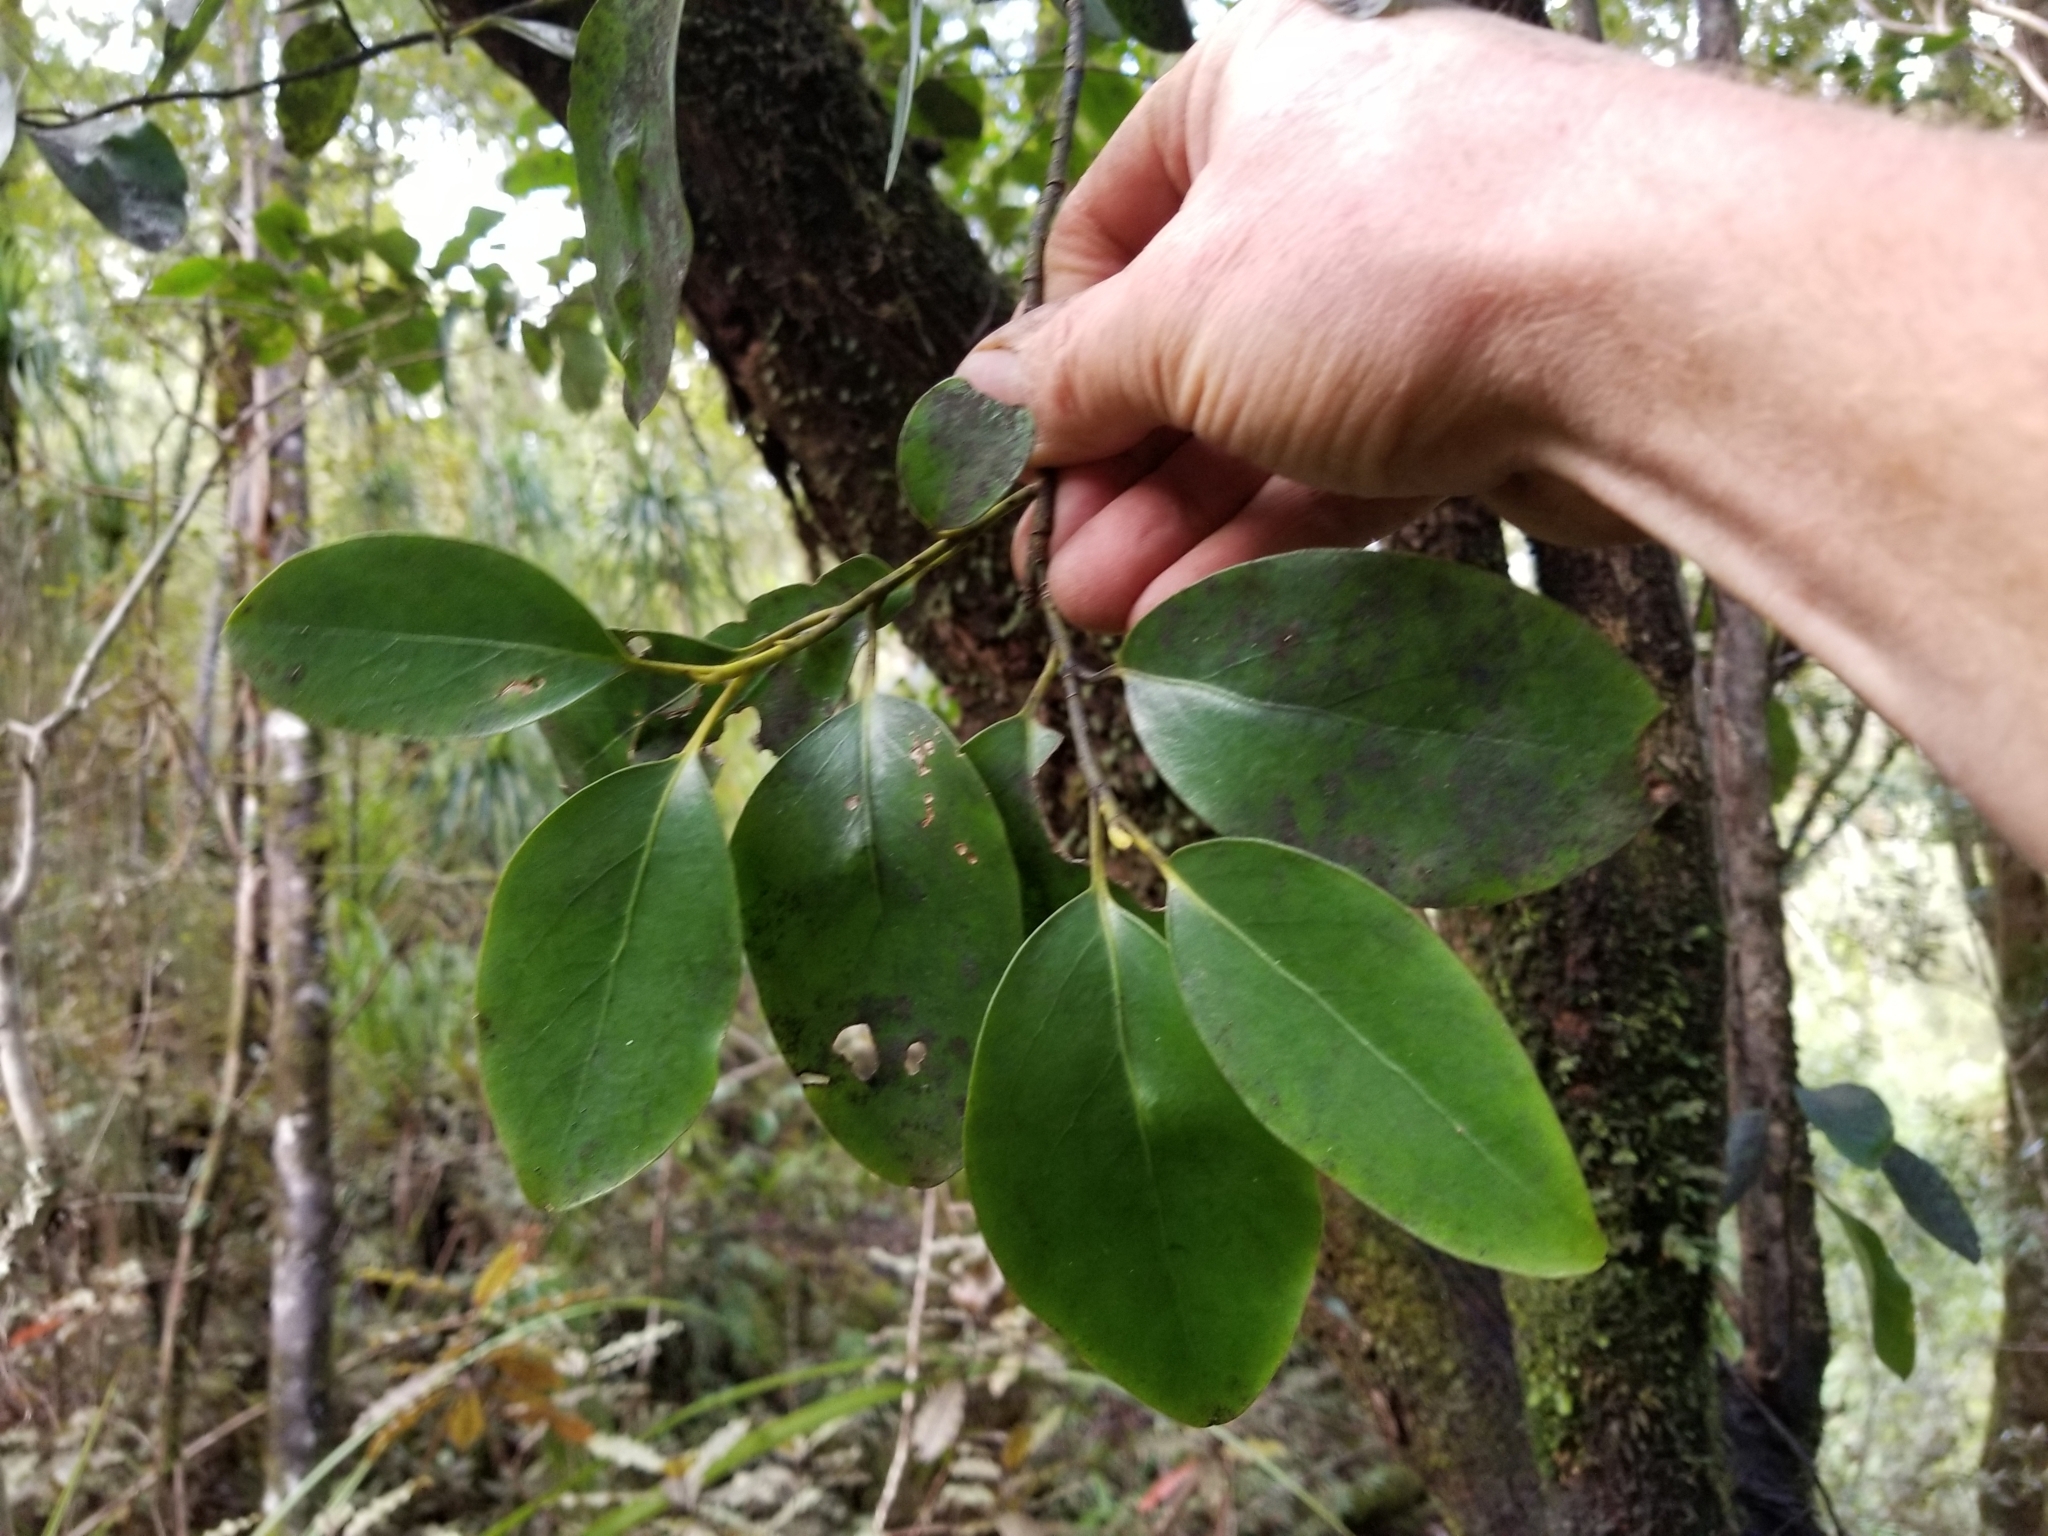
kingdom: Plantae
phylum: Tracheophyta
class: Magnoliopsida
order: Apiales
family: Griseliniaceae
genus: Griselinia
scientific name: Griselinia littoralis
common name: New zealand broadleaf
